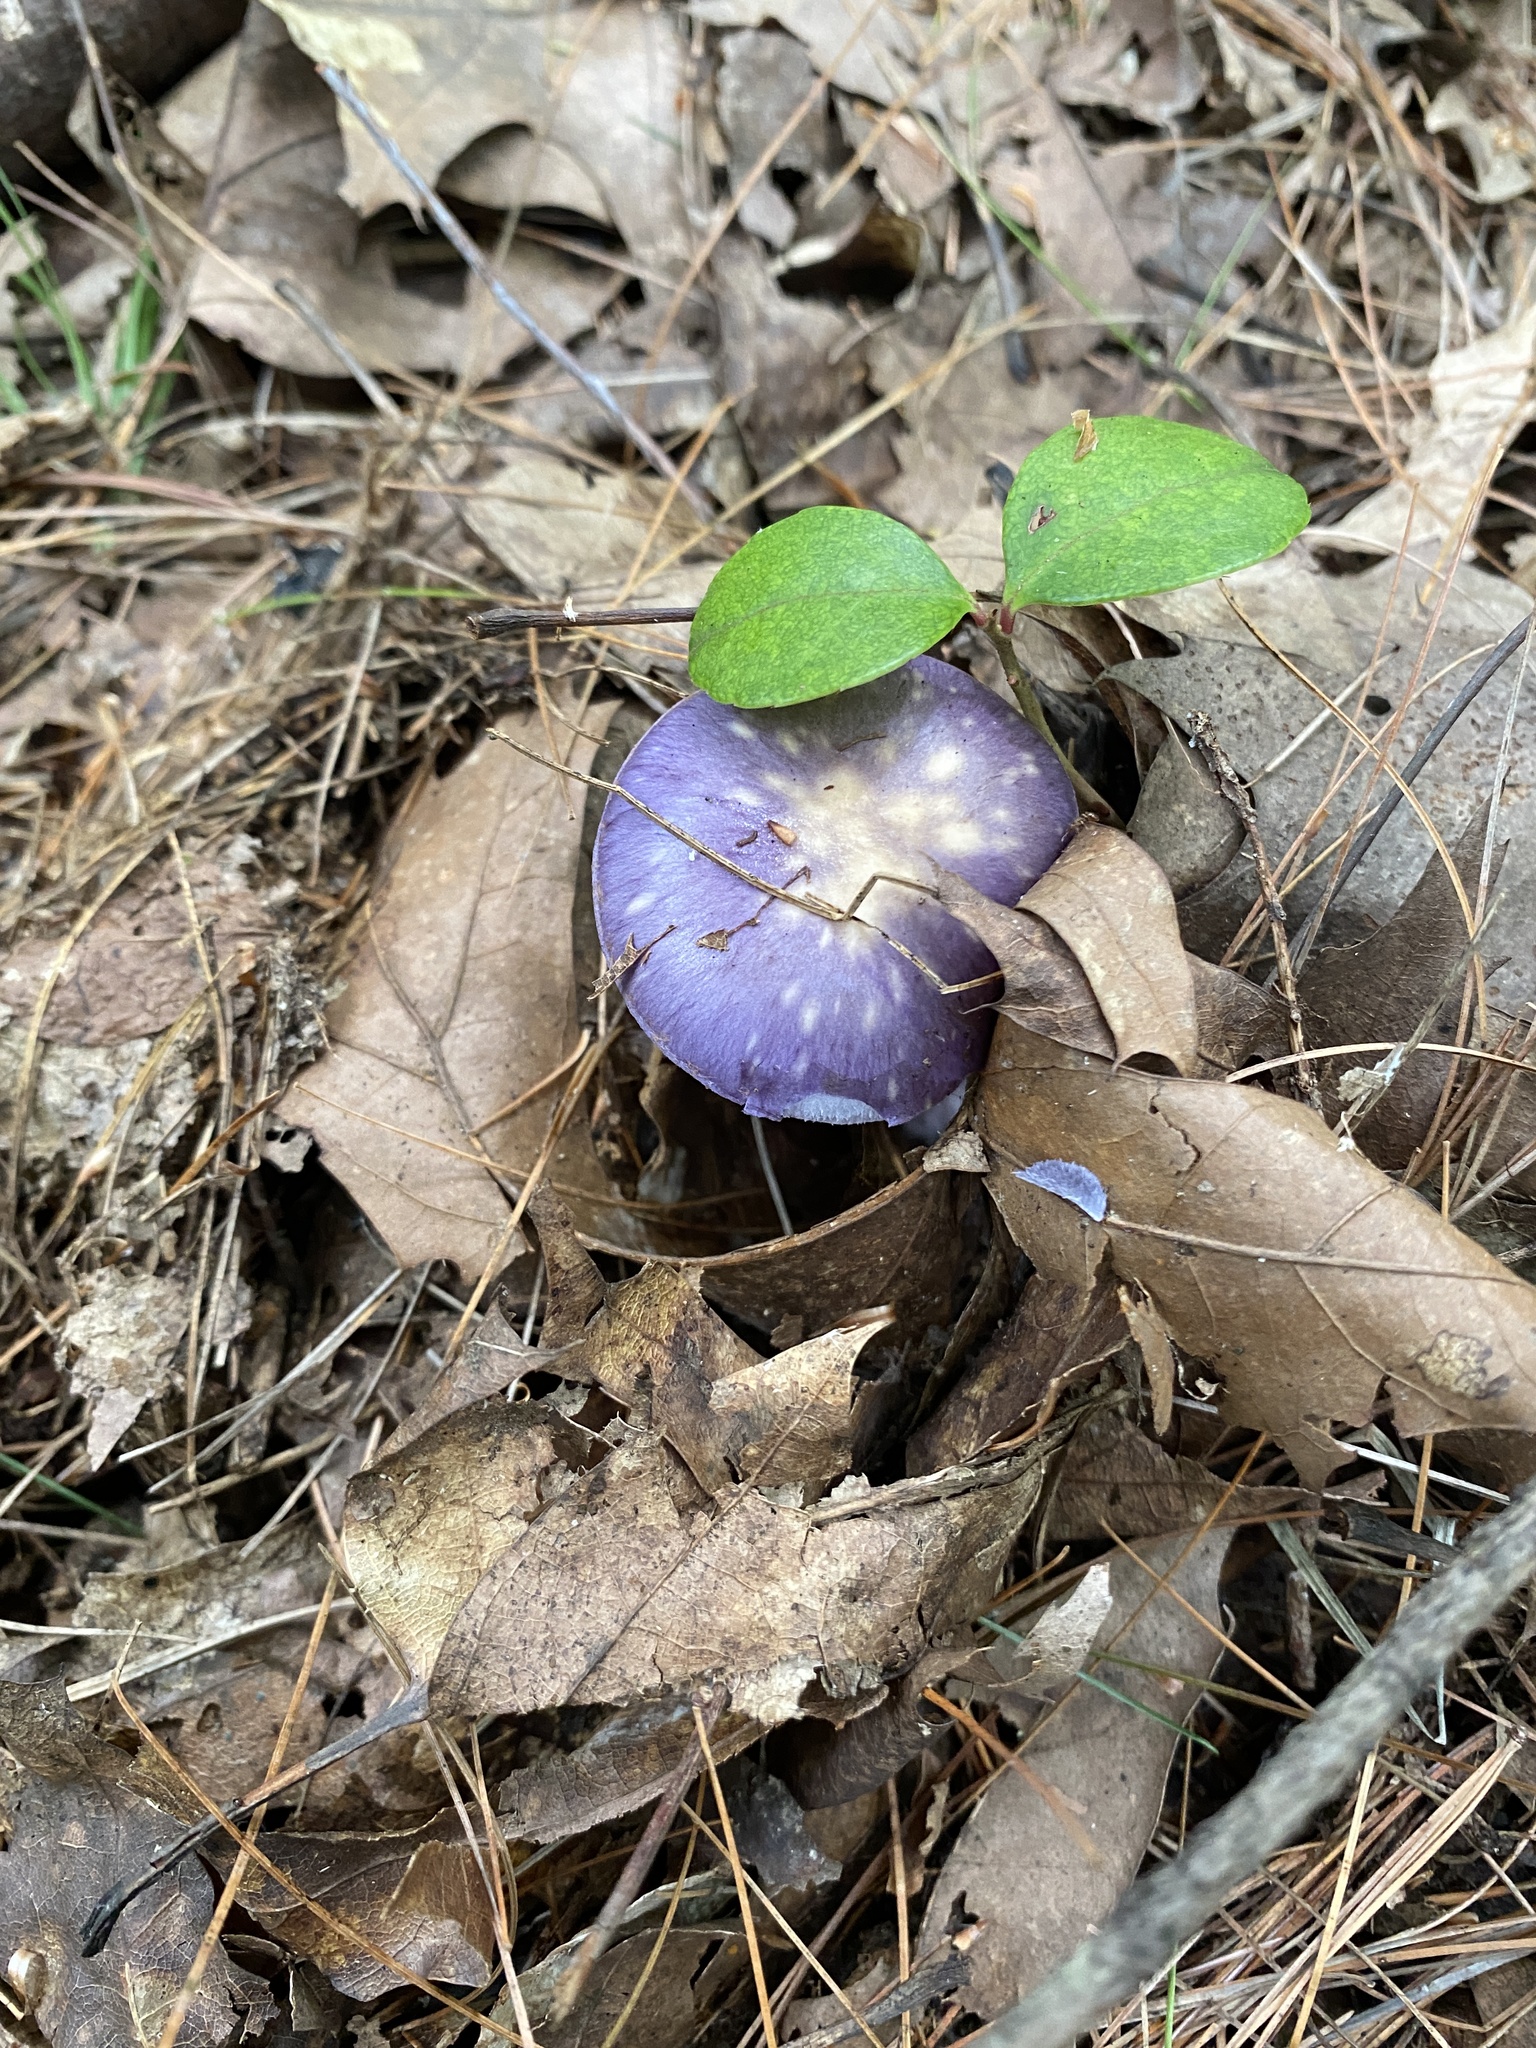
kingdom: Fungi
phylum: Basidiomycota
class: Agaricomycetes
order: Agaricales
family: Cortinariaceae
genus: Cortinarius
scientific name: Cortinarius iodes
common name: Viscid violet cort
